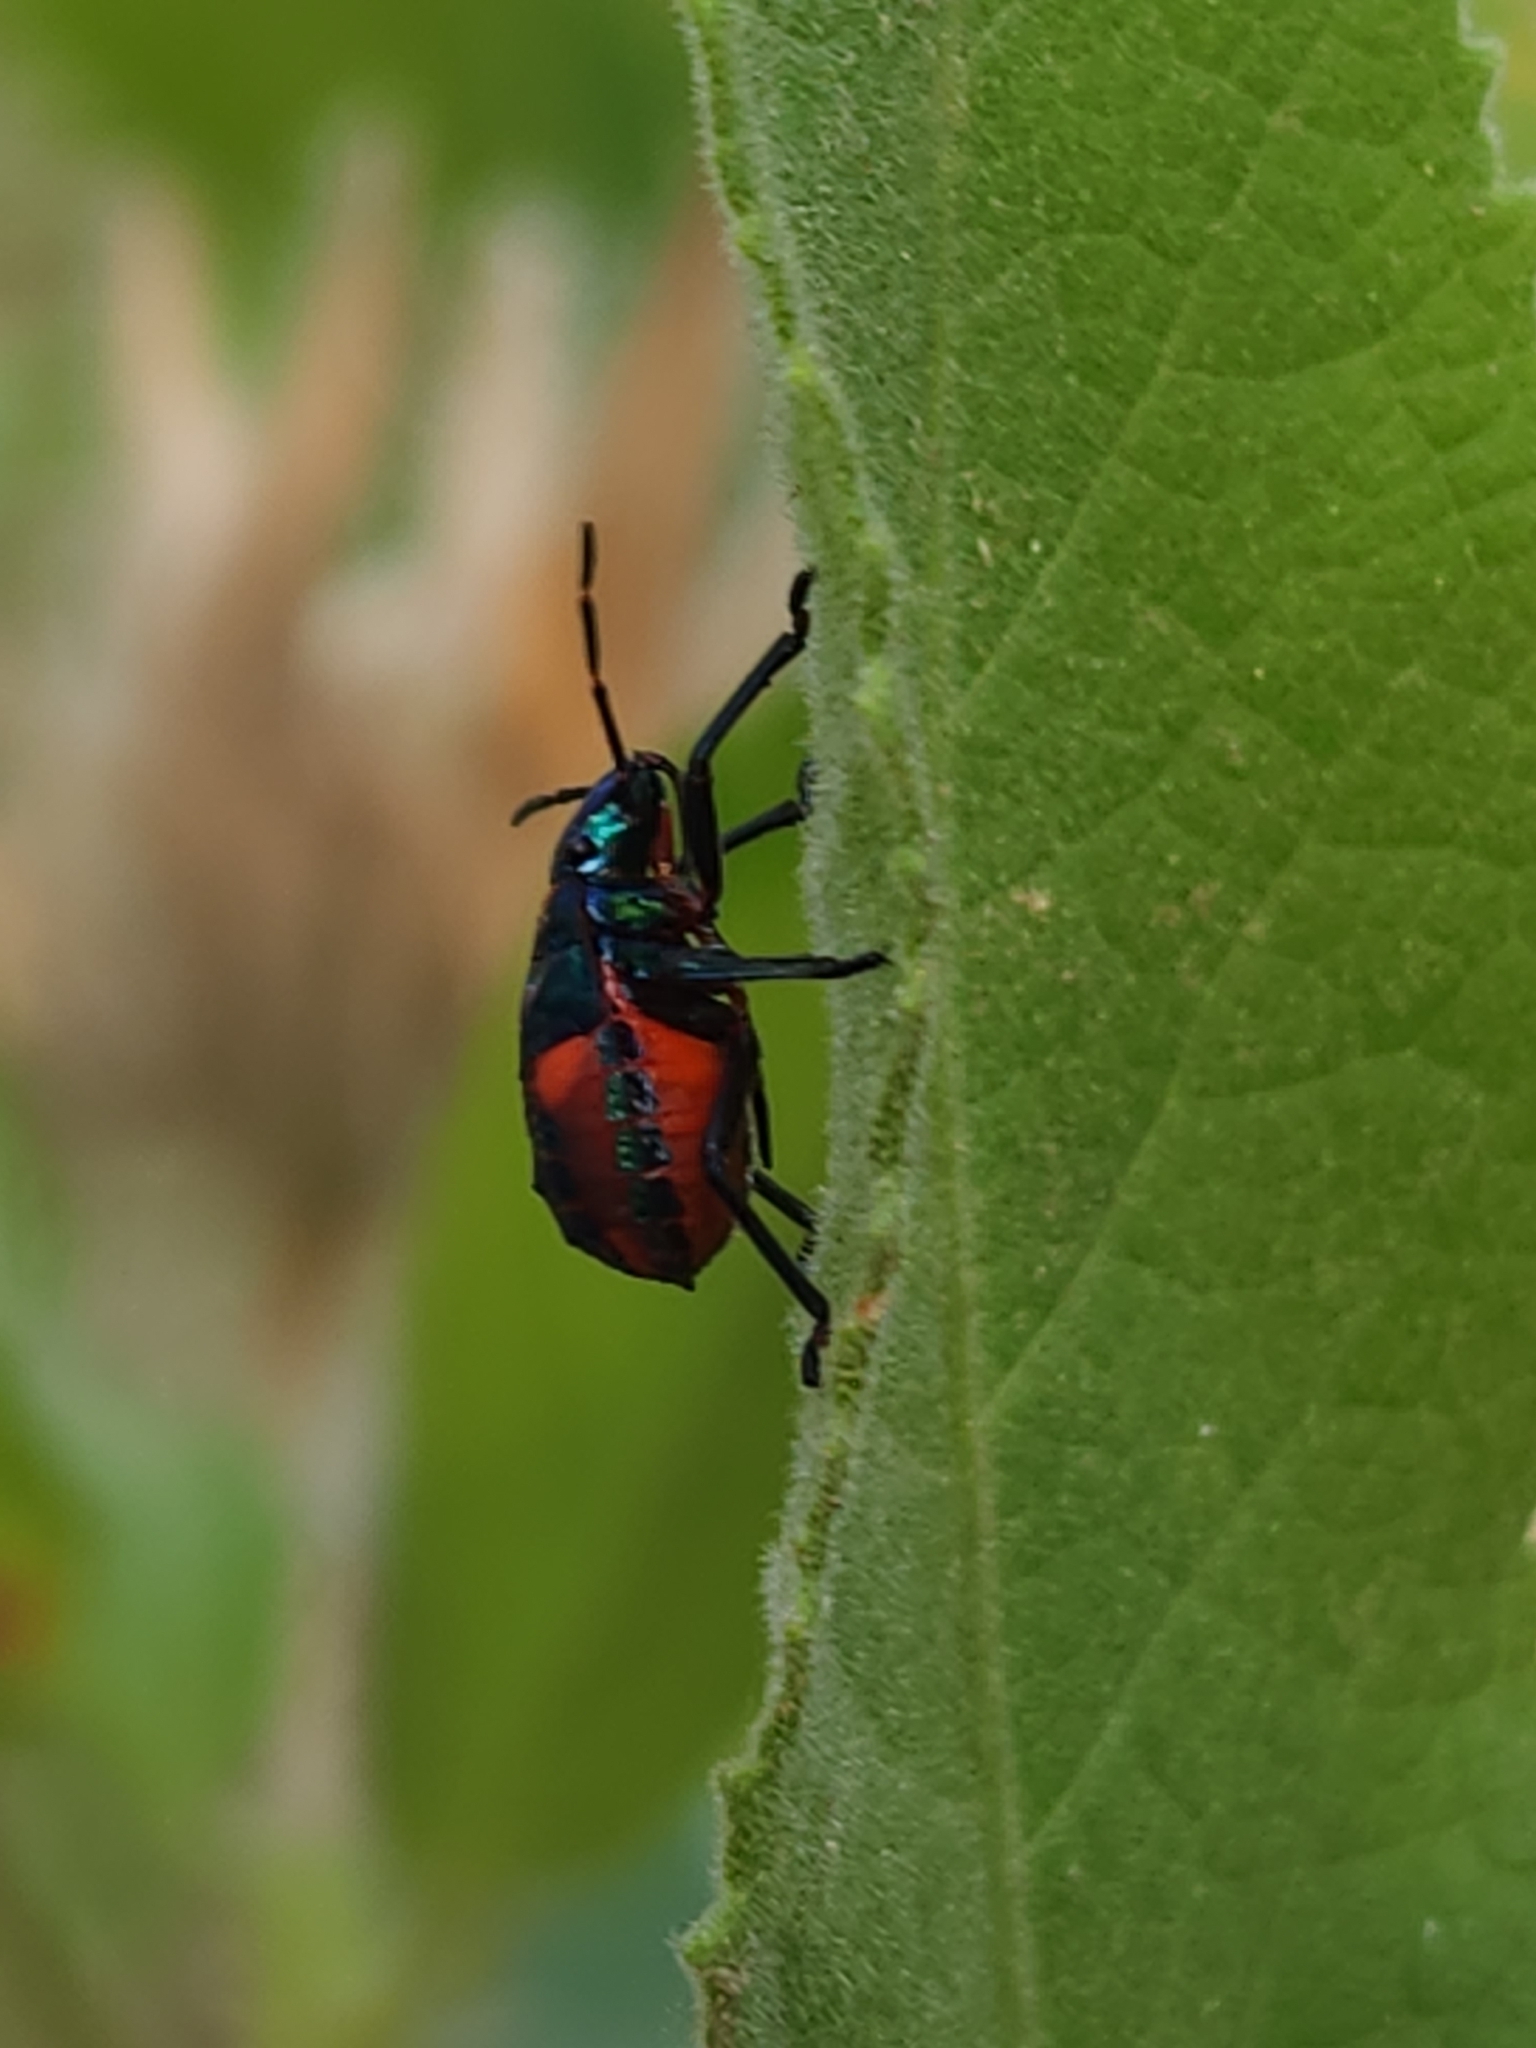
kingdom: Animalia
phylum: Arthropoda
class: Insecta
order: Hemiptera
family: Scutelleridae
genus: Tectocoris
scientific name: Tectocoris diophthalmus
